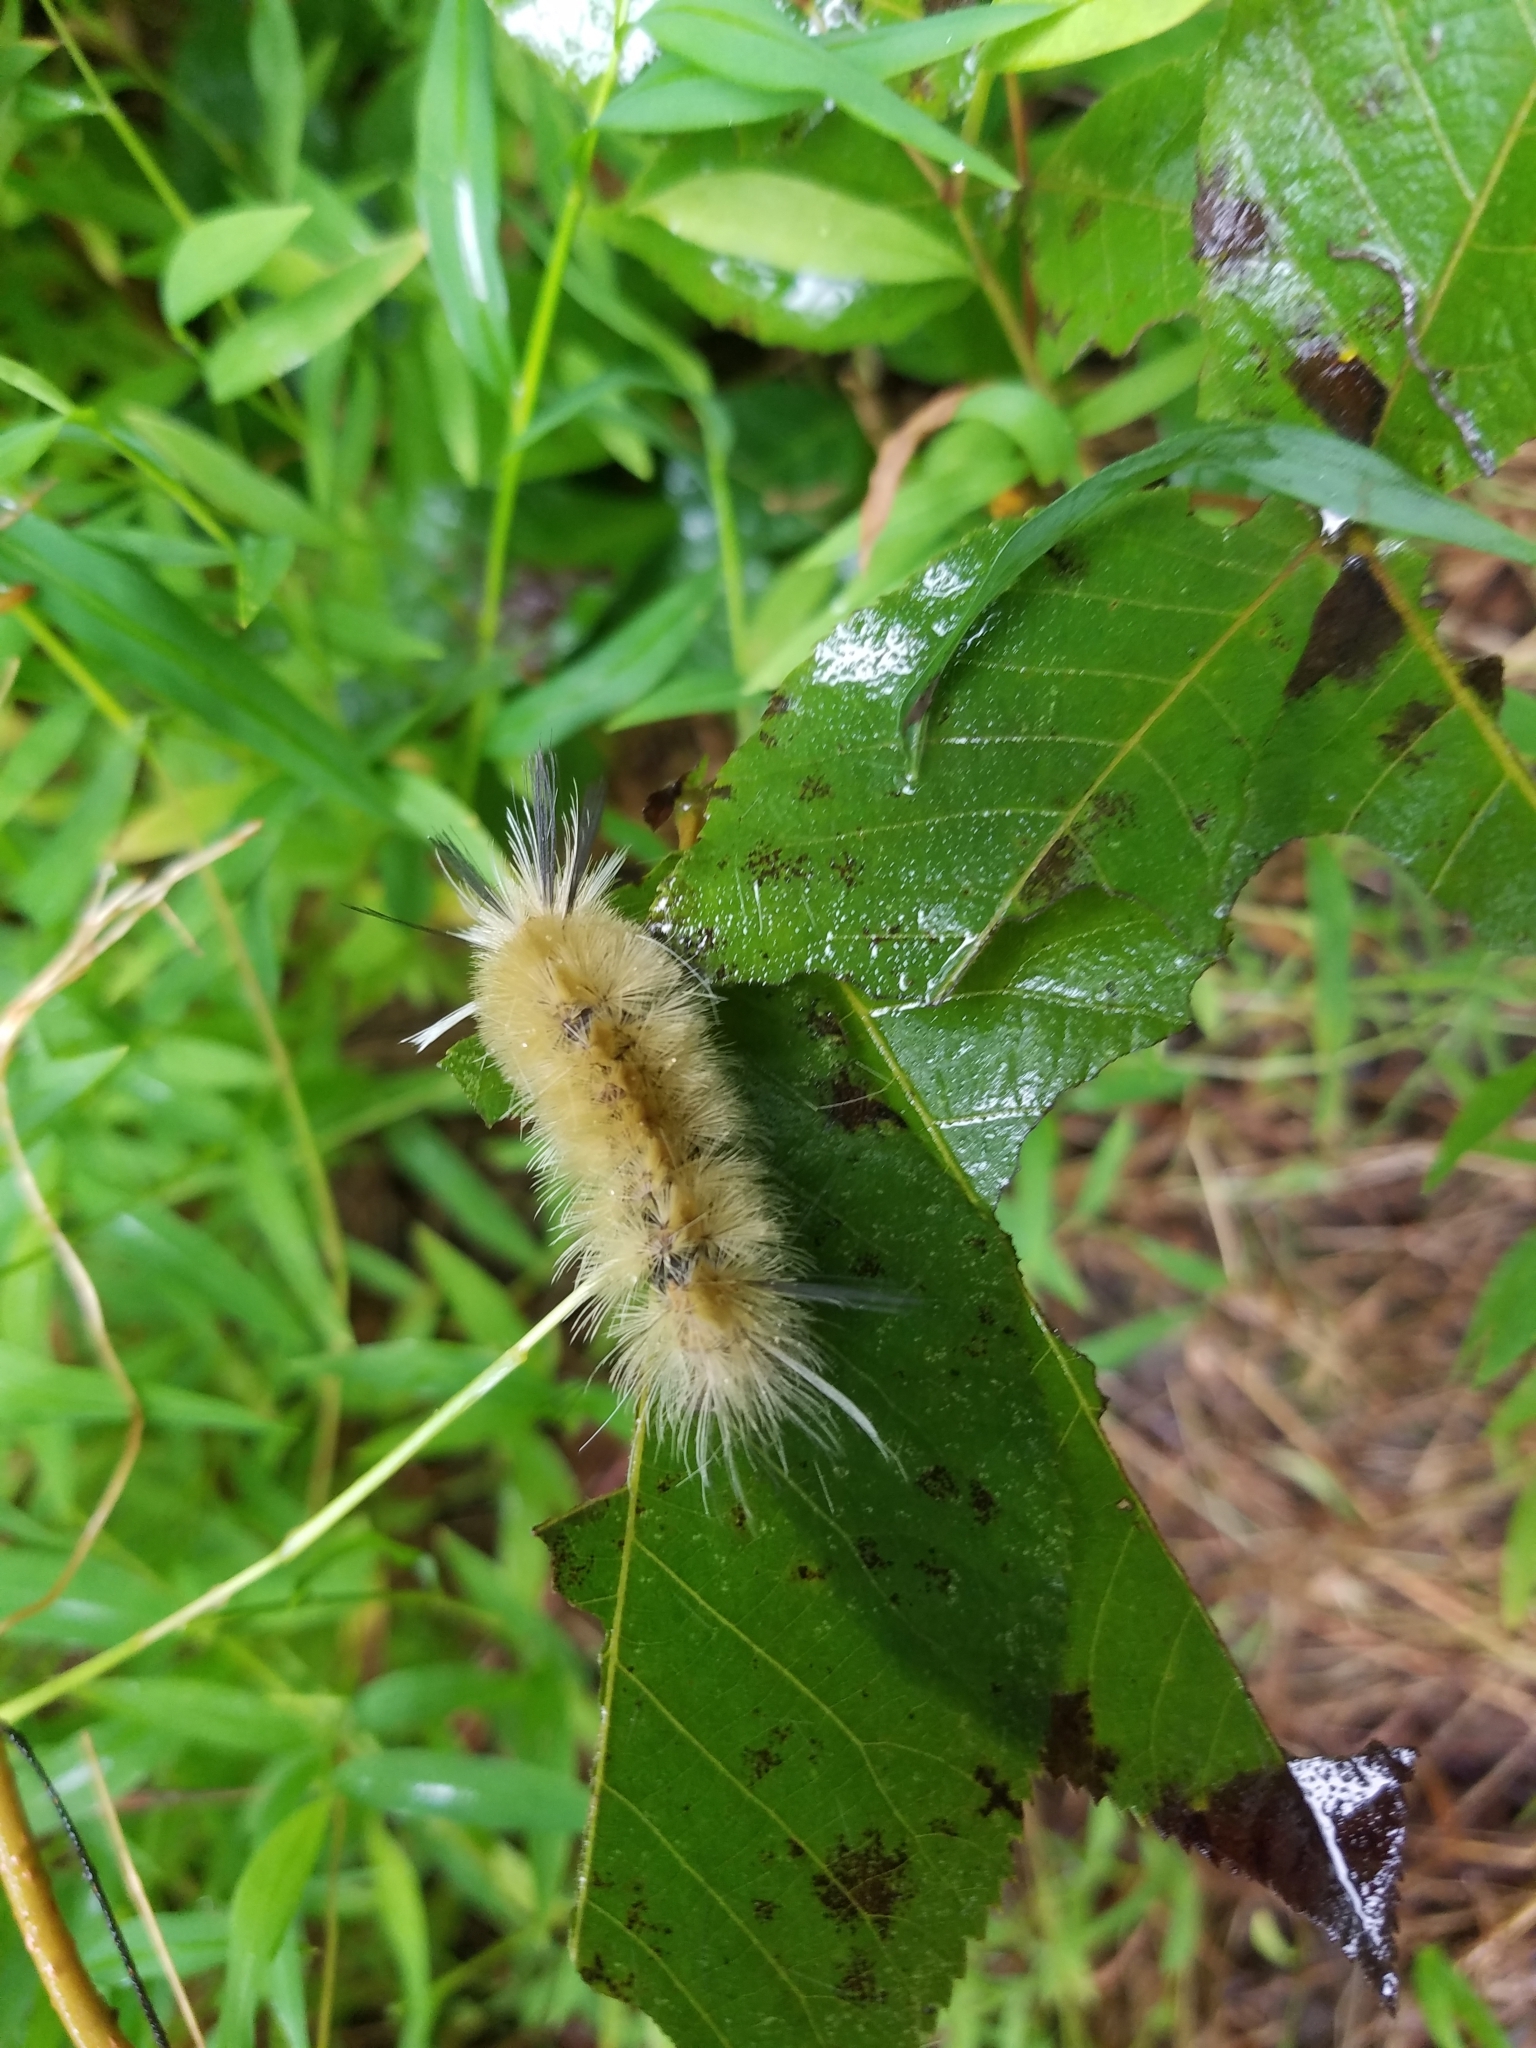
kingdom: Animalia
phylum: Arthropoda
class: Insecta
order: Lepidoptera
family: Erebidae
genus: Halysidota
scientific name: Halysidota tessellaris
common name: Banded tussock moth
